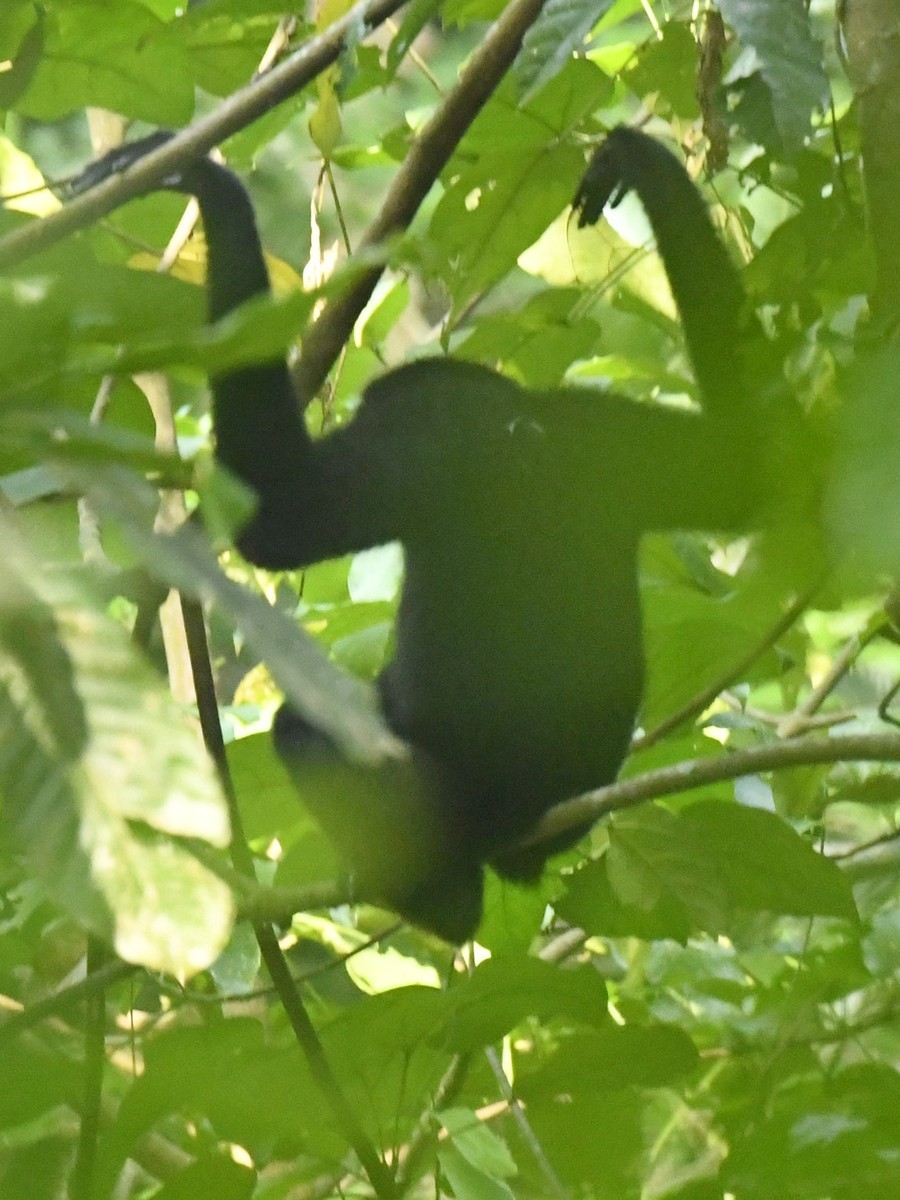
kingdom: Animalia
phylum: Chordata
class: Mammalia
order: Primates
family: Hylobatidae
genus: Hoolock
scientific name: Hoolock hoolock
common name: Western hoolock gibbon
